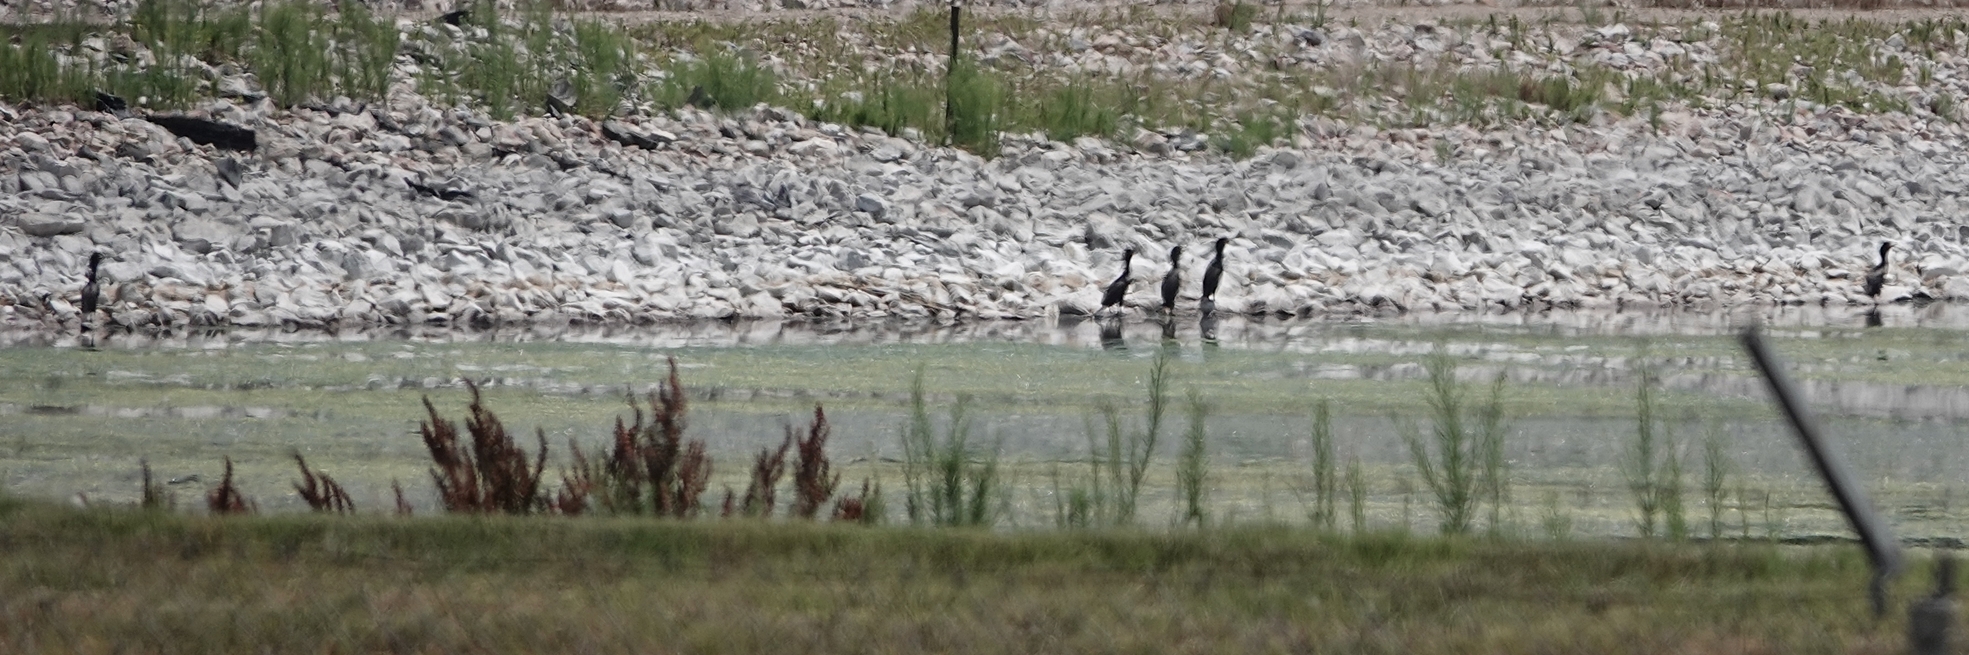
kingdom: Animalia
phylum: Chordata
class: Aves
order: Suliformes
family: Phalacrocoracidae
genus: Phalacrocorax
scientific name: Phalacrocorax auritus
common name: Double-crested cormorant
